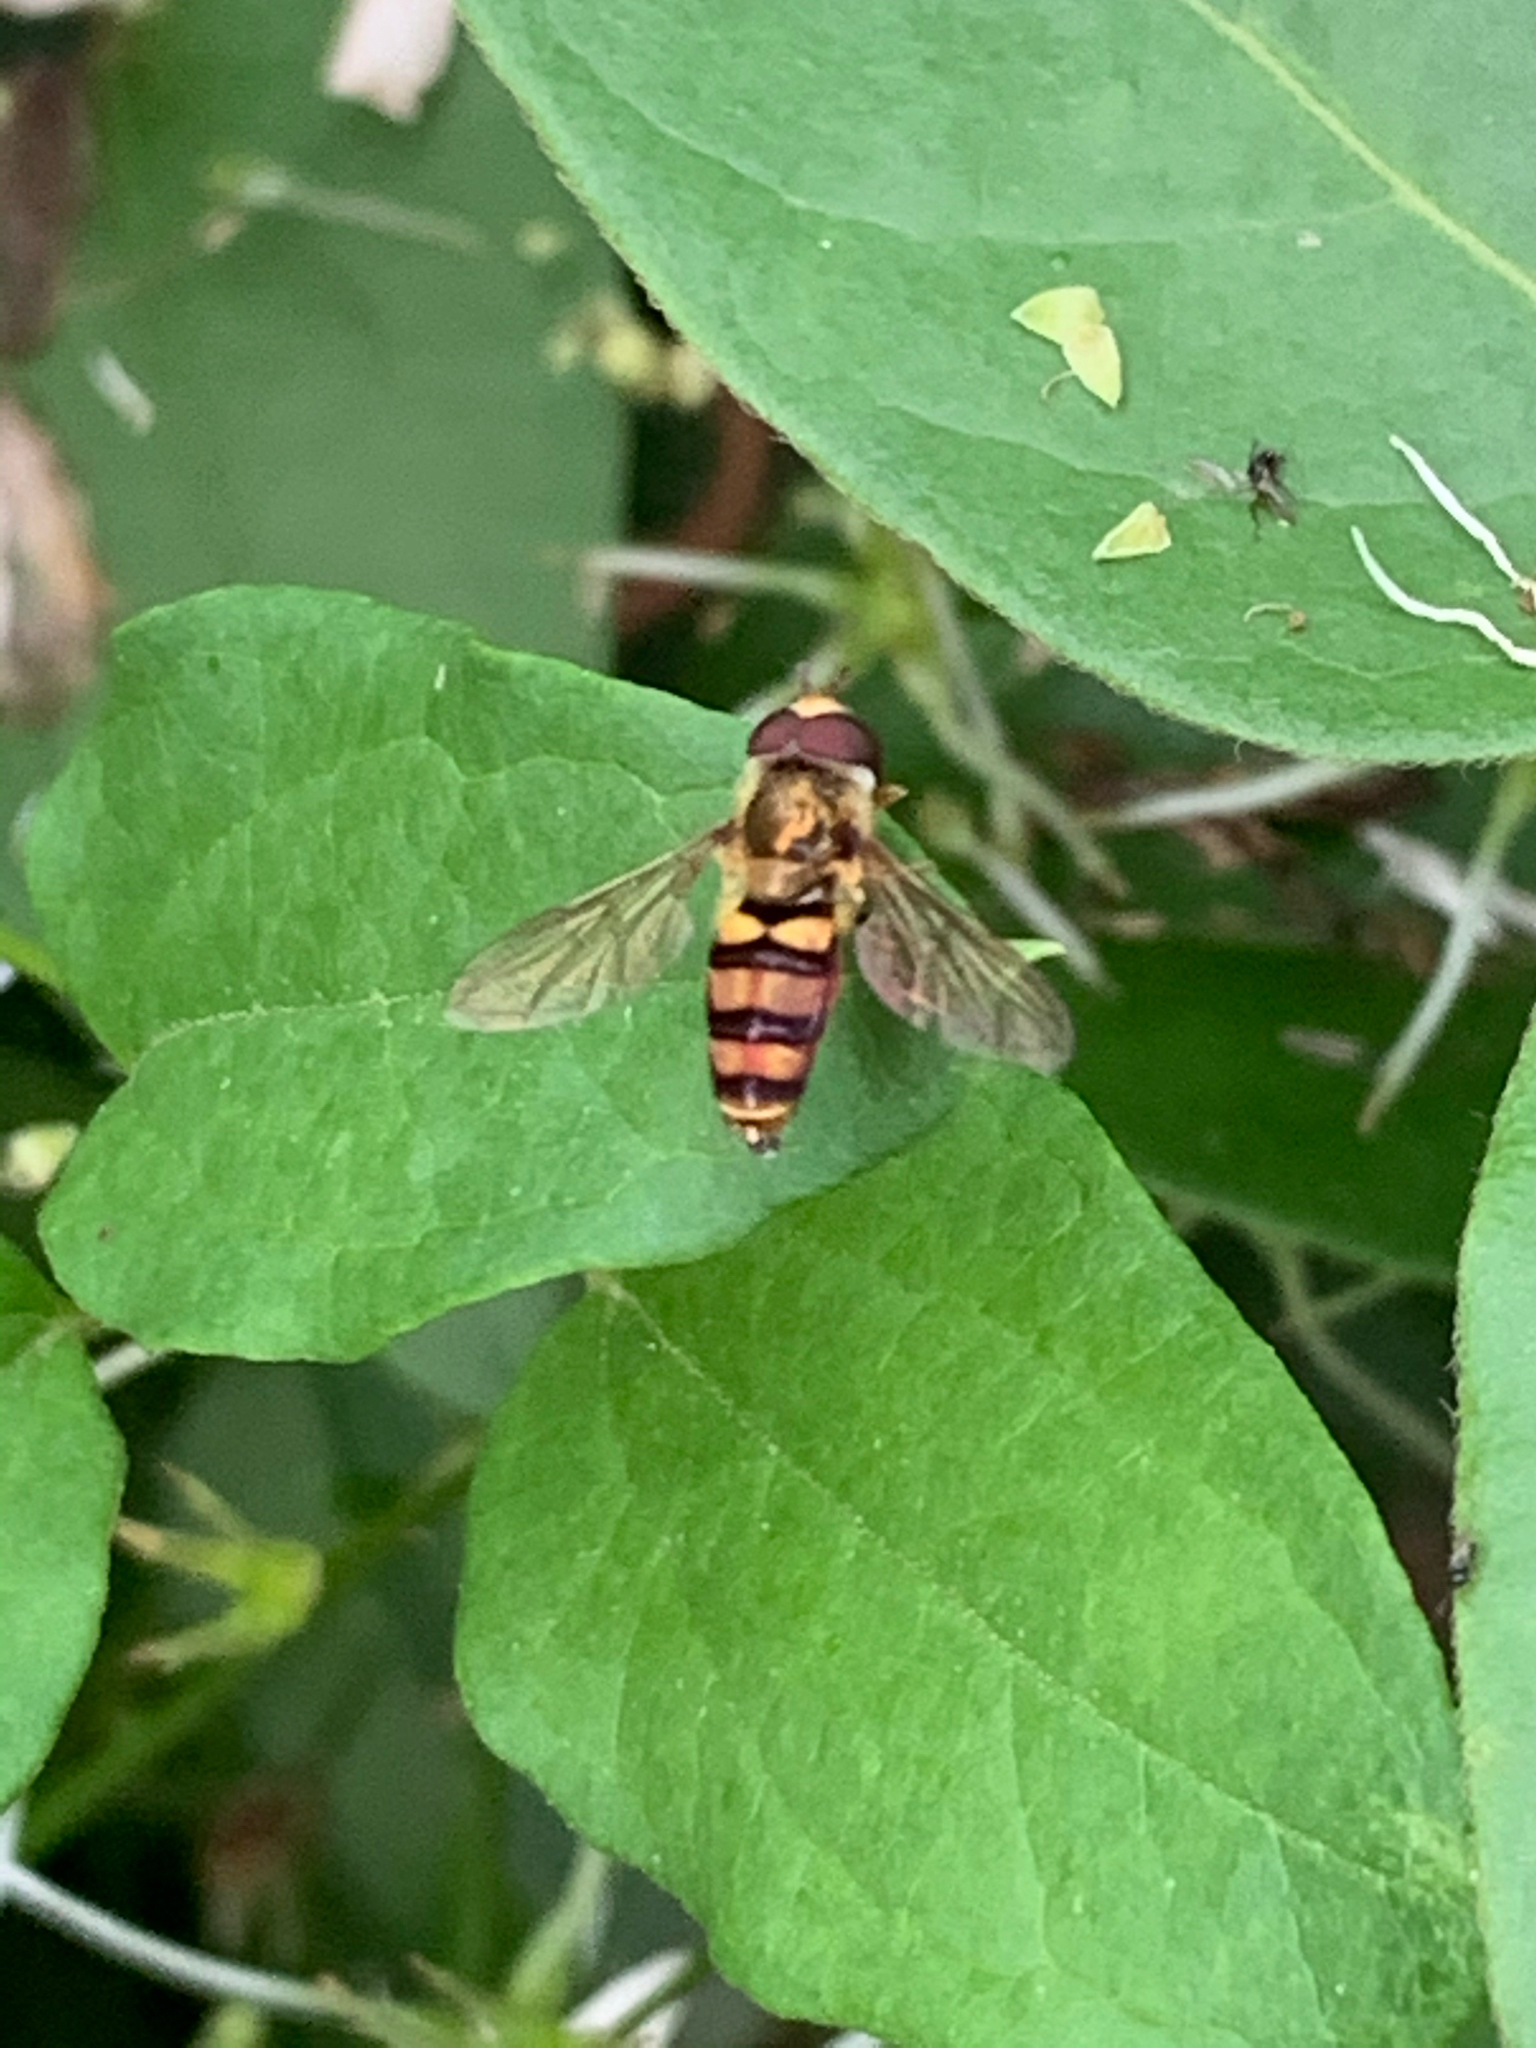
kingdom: Animalia
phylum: Arthropoda
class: Insecta
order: Diptera
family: Syrphidae
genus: Eupeodes
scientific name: Eupeodes
